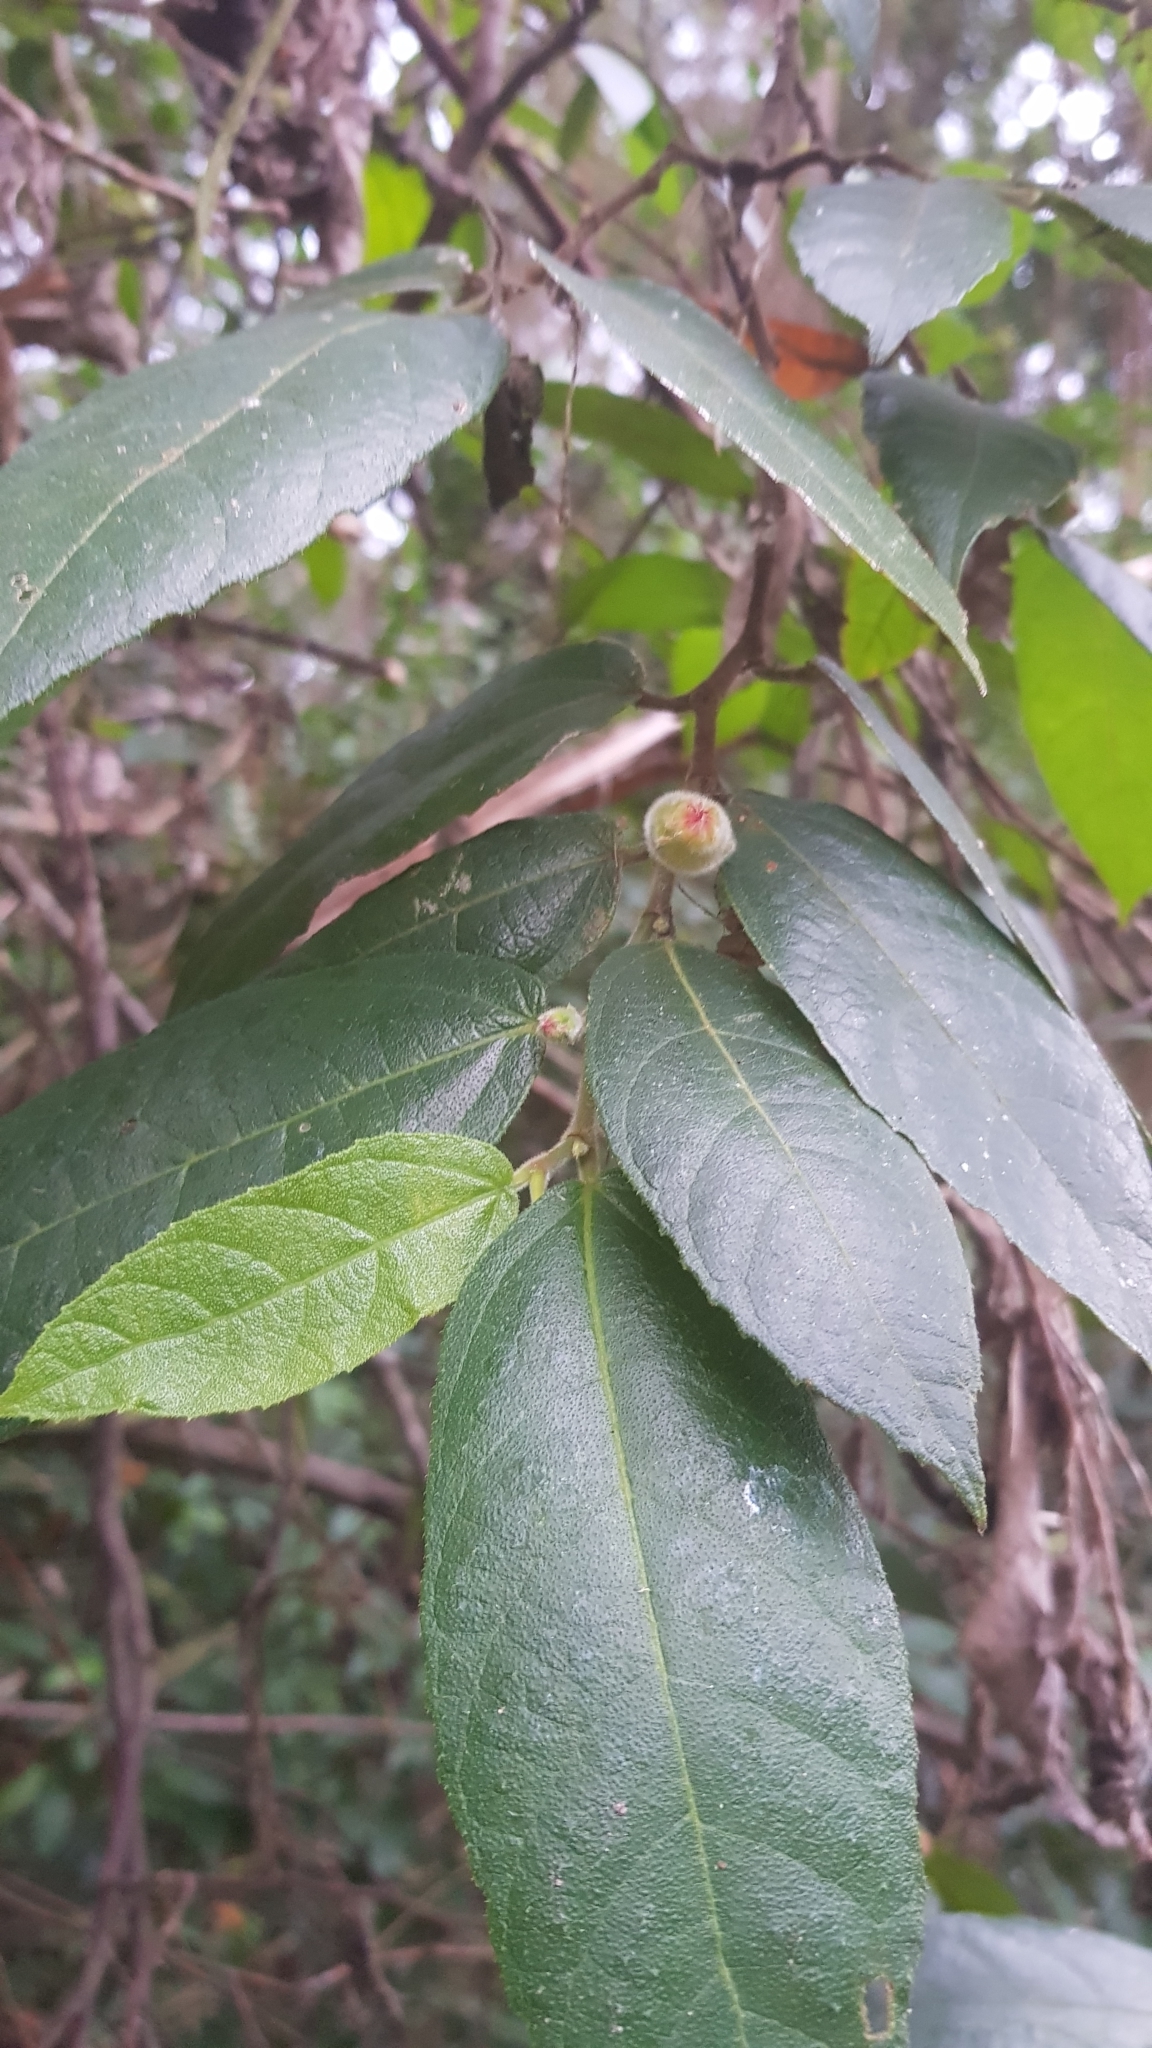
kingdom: Plantae
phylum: Tracheophyta
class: Magnoliopsida
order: Rosales
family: Moraceae
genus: Ficus
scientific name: Ficus coronata
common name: Creek sandpaper fig
